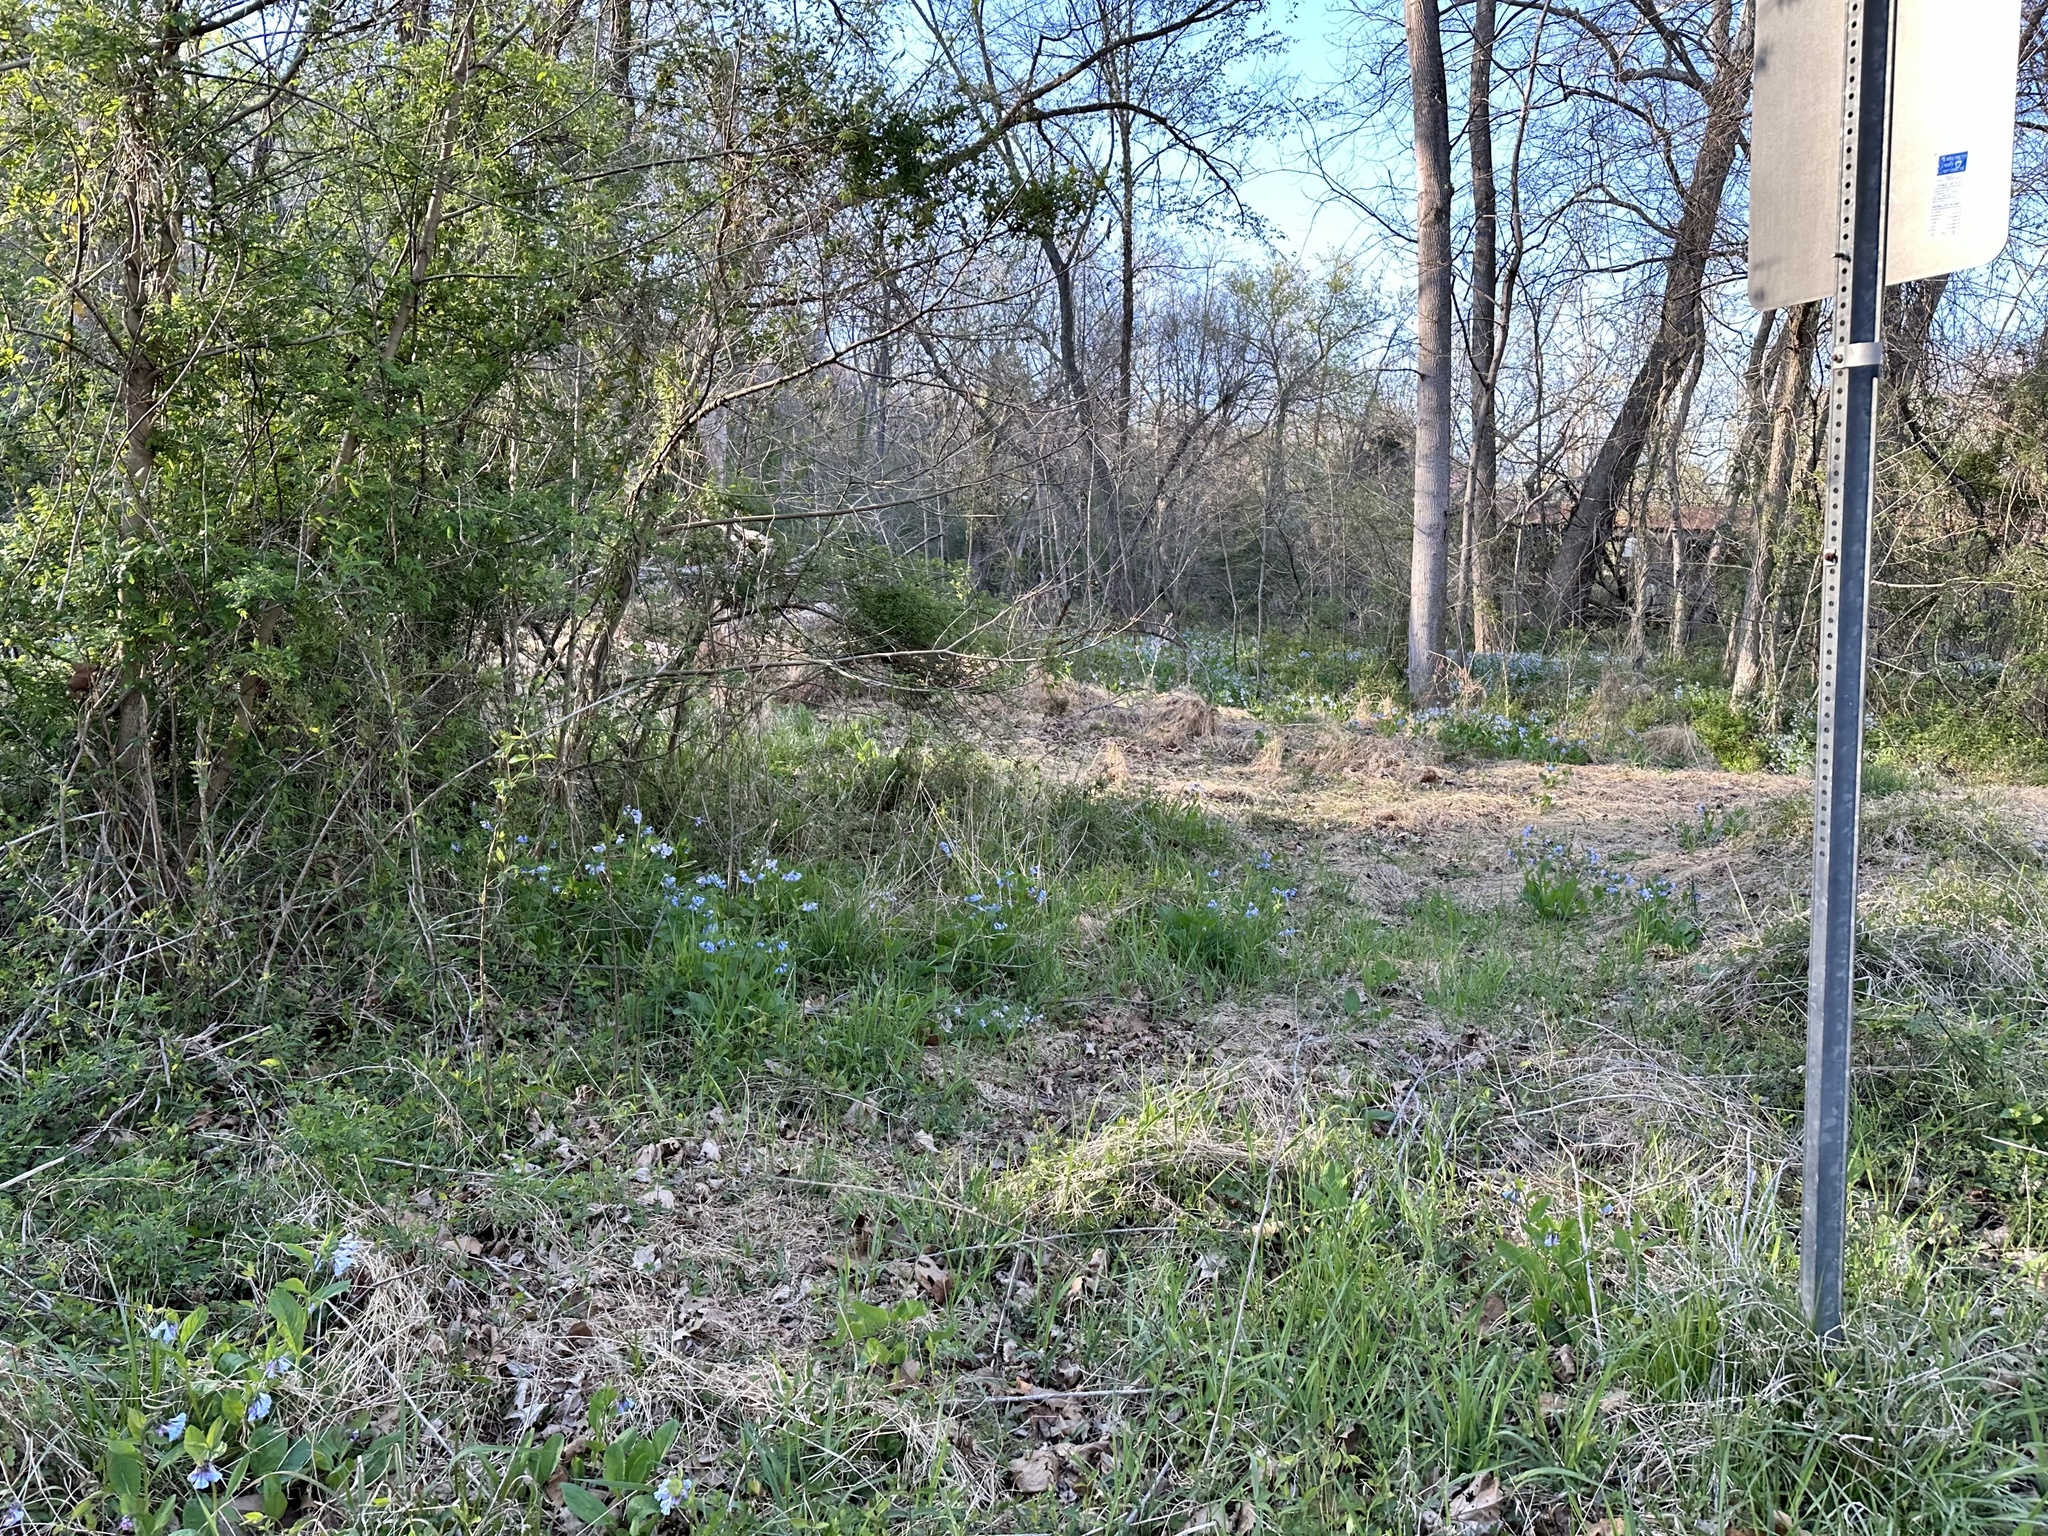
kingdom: Plantae
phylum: Tracheophyta
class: Magnoliopsida
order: Boraginales
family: Boraginaceae
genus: Mertensia
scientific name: Mertensia virginica
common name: Virginia bluebells
